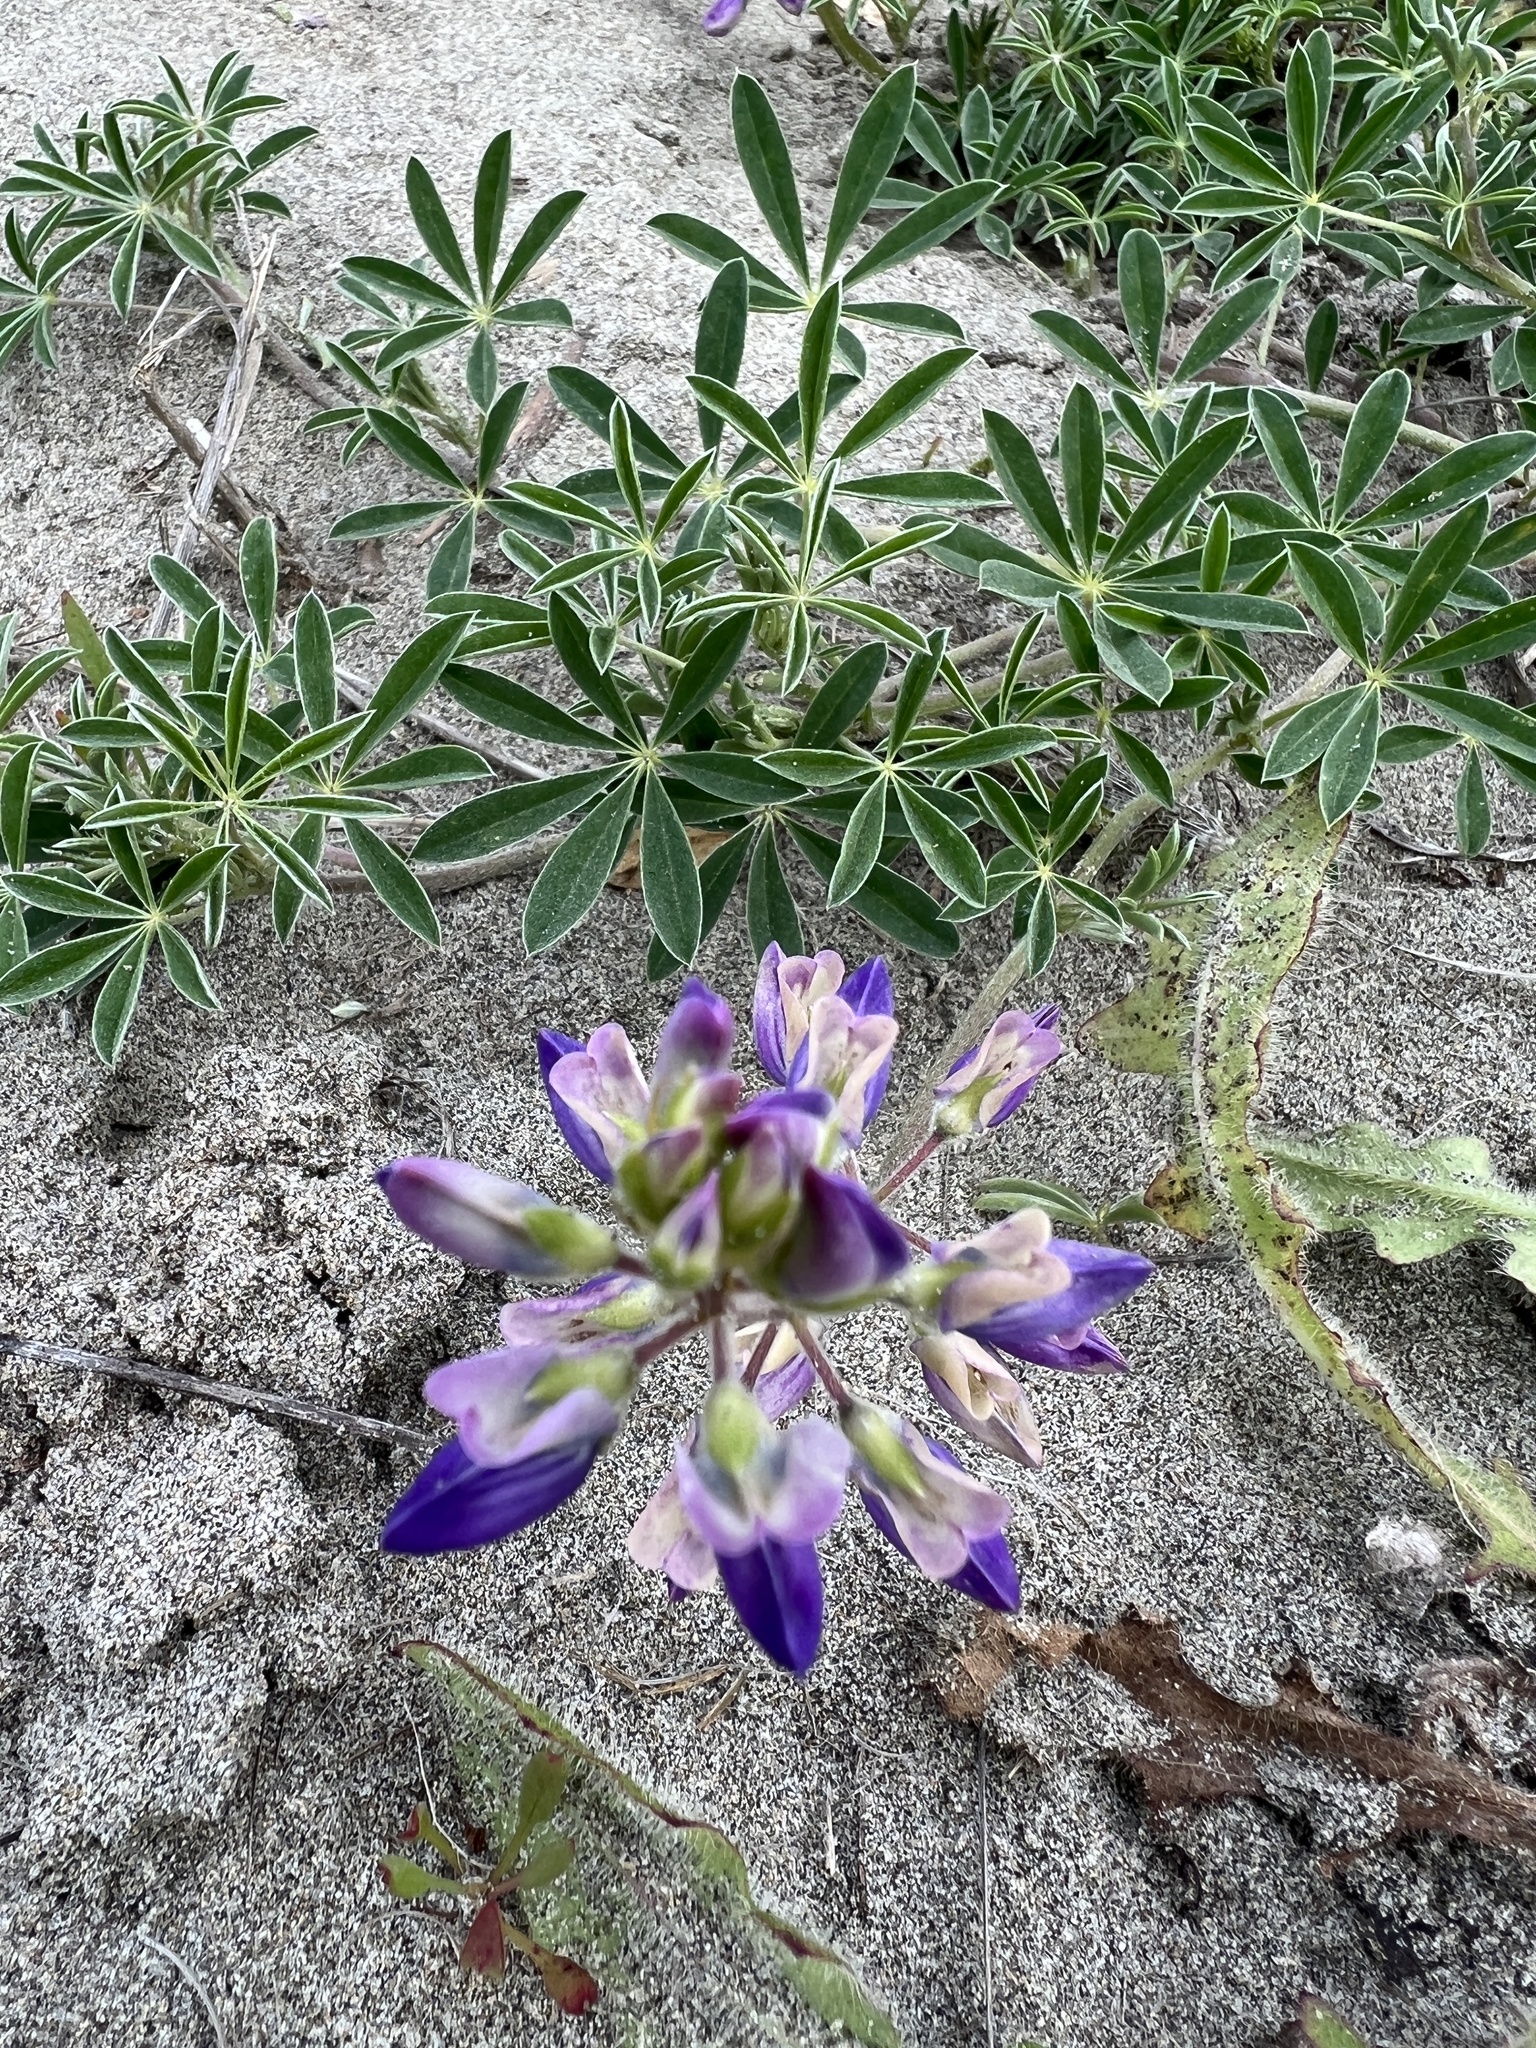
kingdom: Plantae
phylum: Tracheophyta
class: Magnoliopsida
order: Fabales
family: Fabaceae
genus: Lupinus
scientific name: Lupinus littoralis
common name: Seashore lupine
